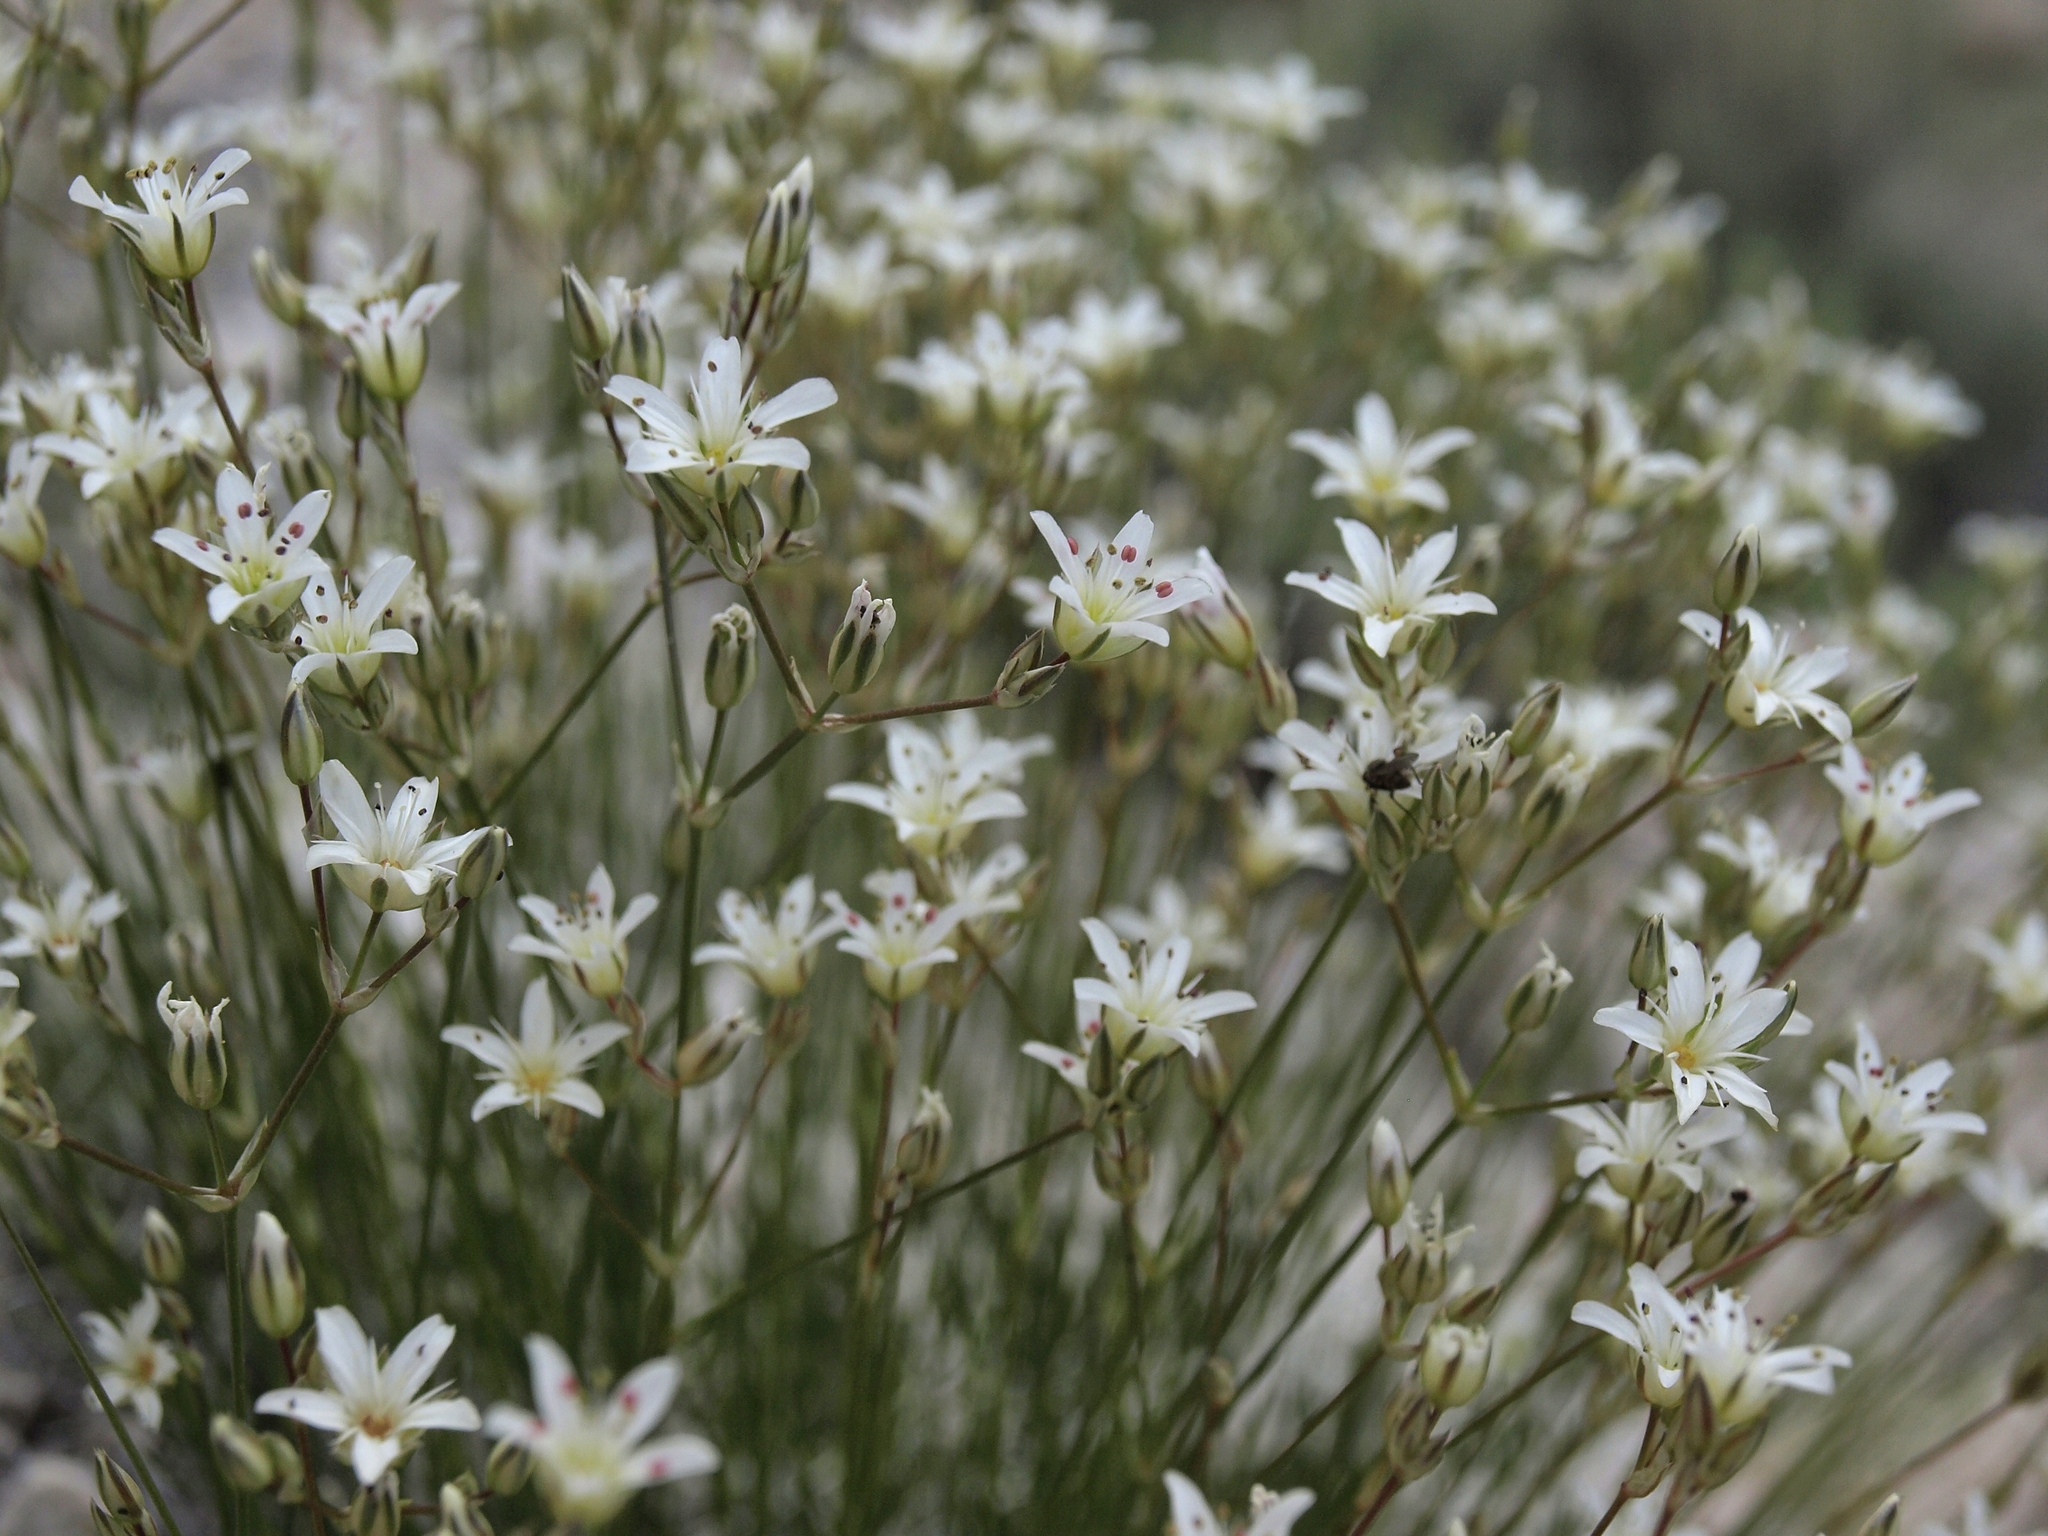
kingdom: Plantae
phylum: Tracheophyta
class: Magnoliopsida
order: Caryophyllales
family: Caryophyllaceae
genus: Eremogone
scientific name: Eremogone ferrisiae
